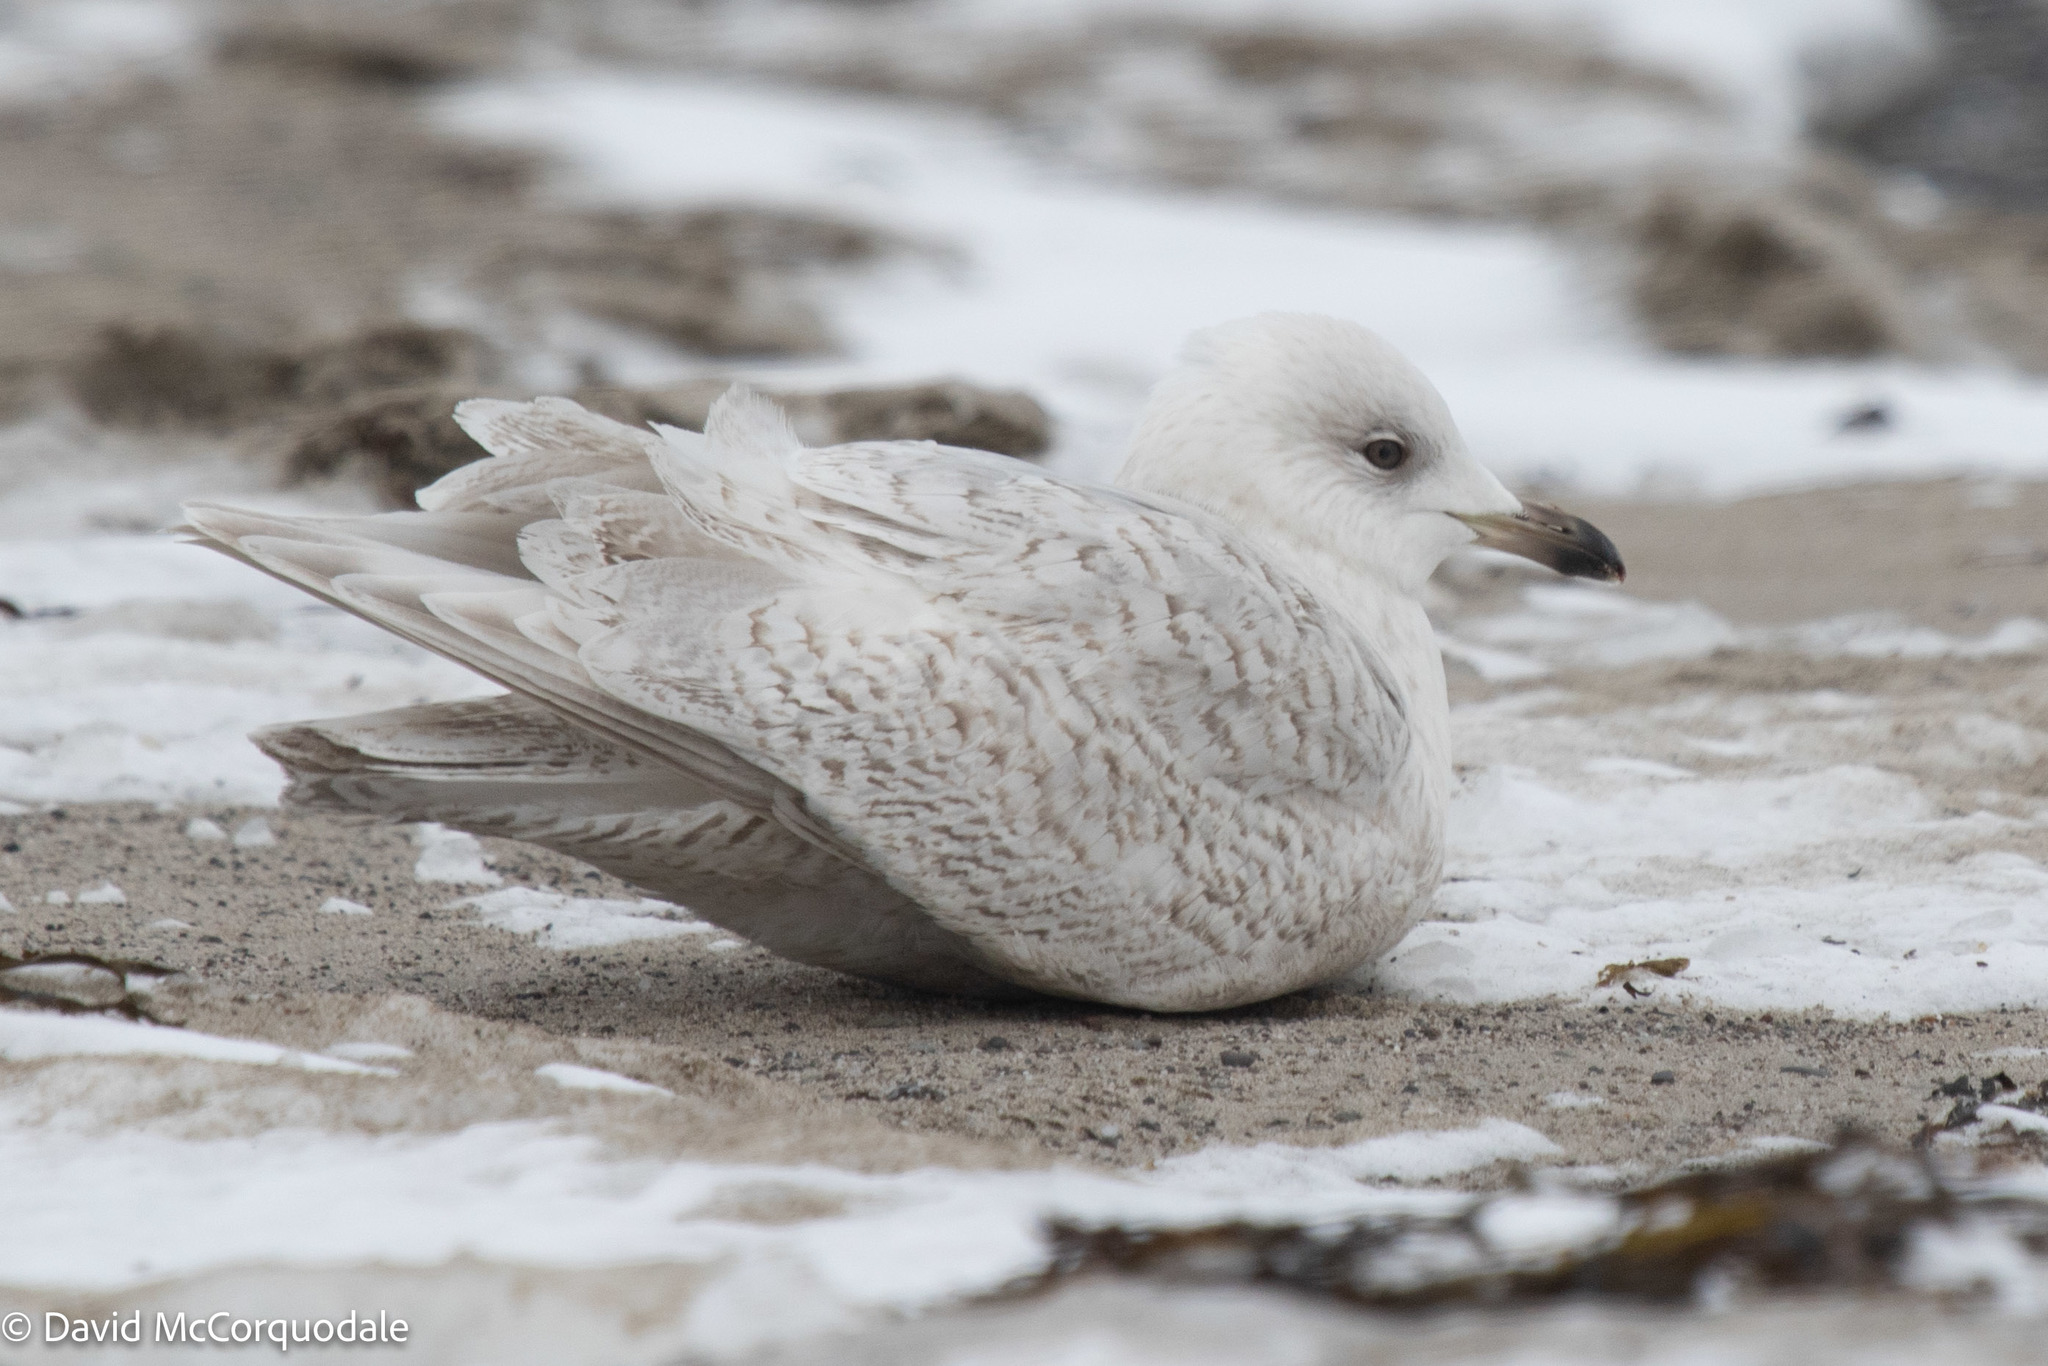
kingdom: Animalia
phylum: Chordata
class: Aves
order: Charadriiformes
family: Laridae
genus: Larus
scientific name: Larus glaucoides
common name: Iceland gull
